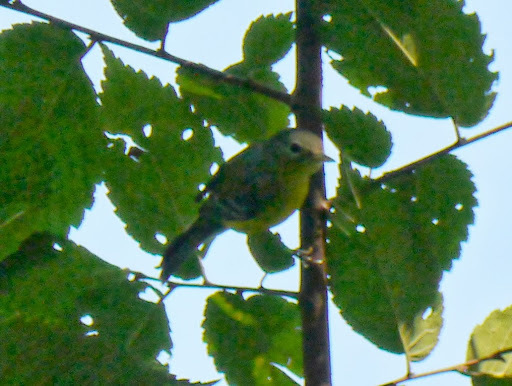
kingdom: Animalia
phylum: Chordata
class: Aves
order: Passeriformes
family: Parulidae
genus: Setophaga
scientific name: Setophaga magnolia
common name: Magnolia warbler
